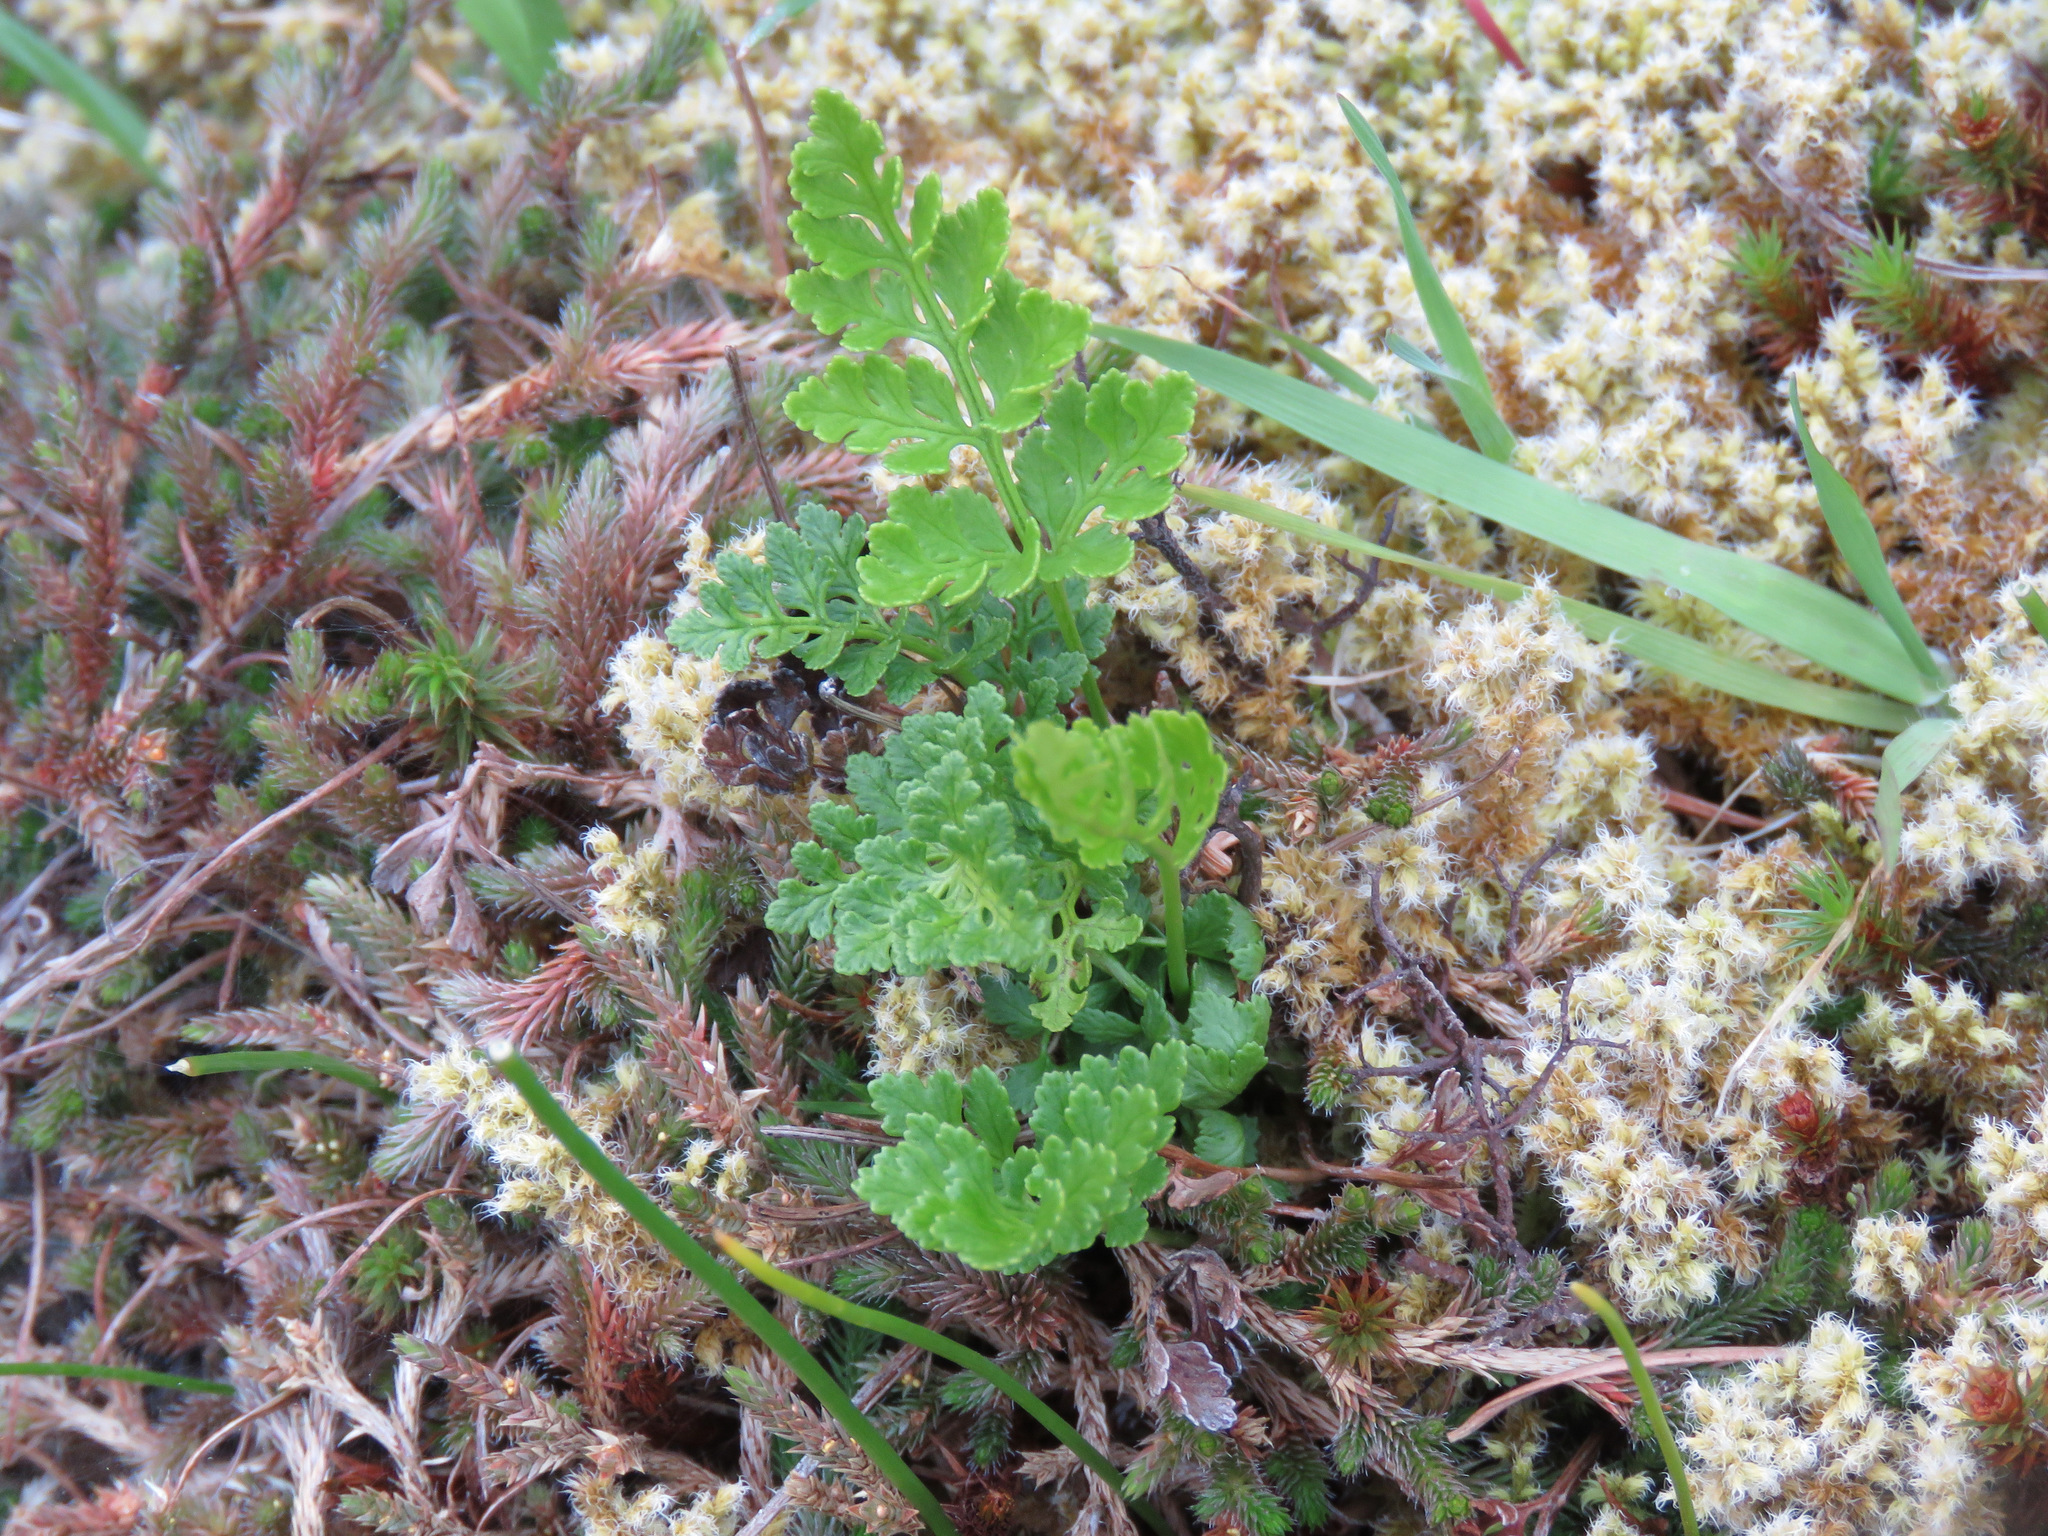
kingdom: Plantae
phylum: Tracheophyta
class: Polypodiopsida
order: Polypodiales
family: Pteridaceae
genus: Cryptogramma
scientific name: Cryptogramma acrostichoides
